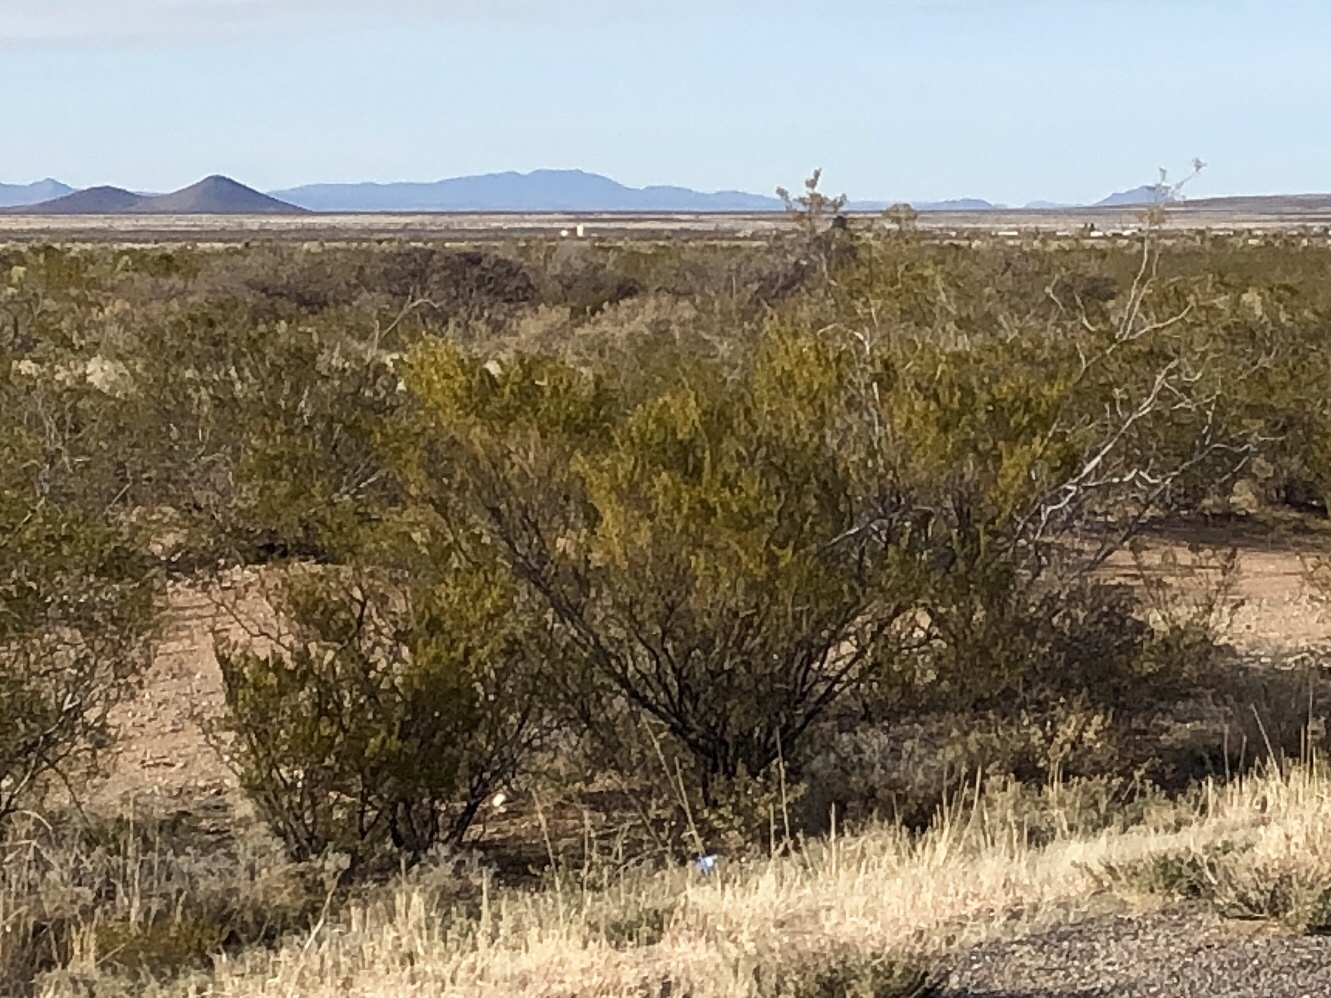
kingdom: Plantae
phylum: Tracheophyta
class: Magnoliopsida
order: Zygophyllales
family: Zygophyllaceae
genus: Larrea
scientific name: Larrea tridentata
